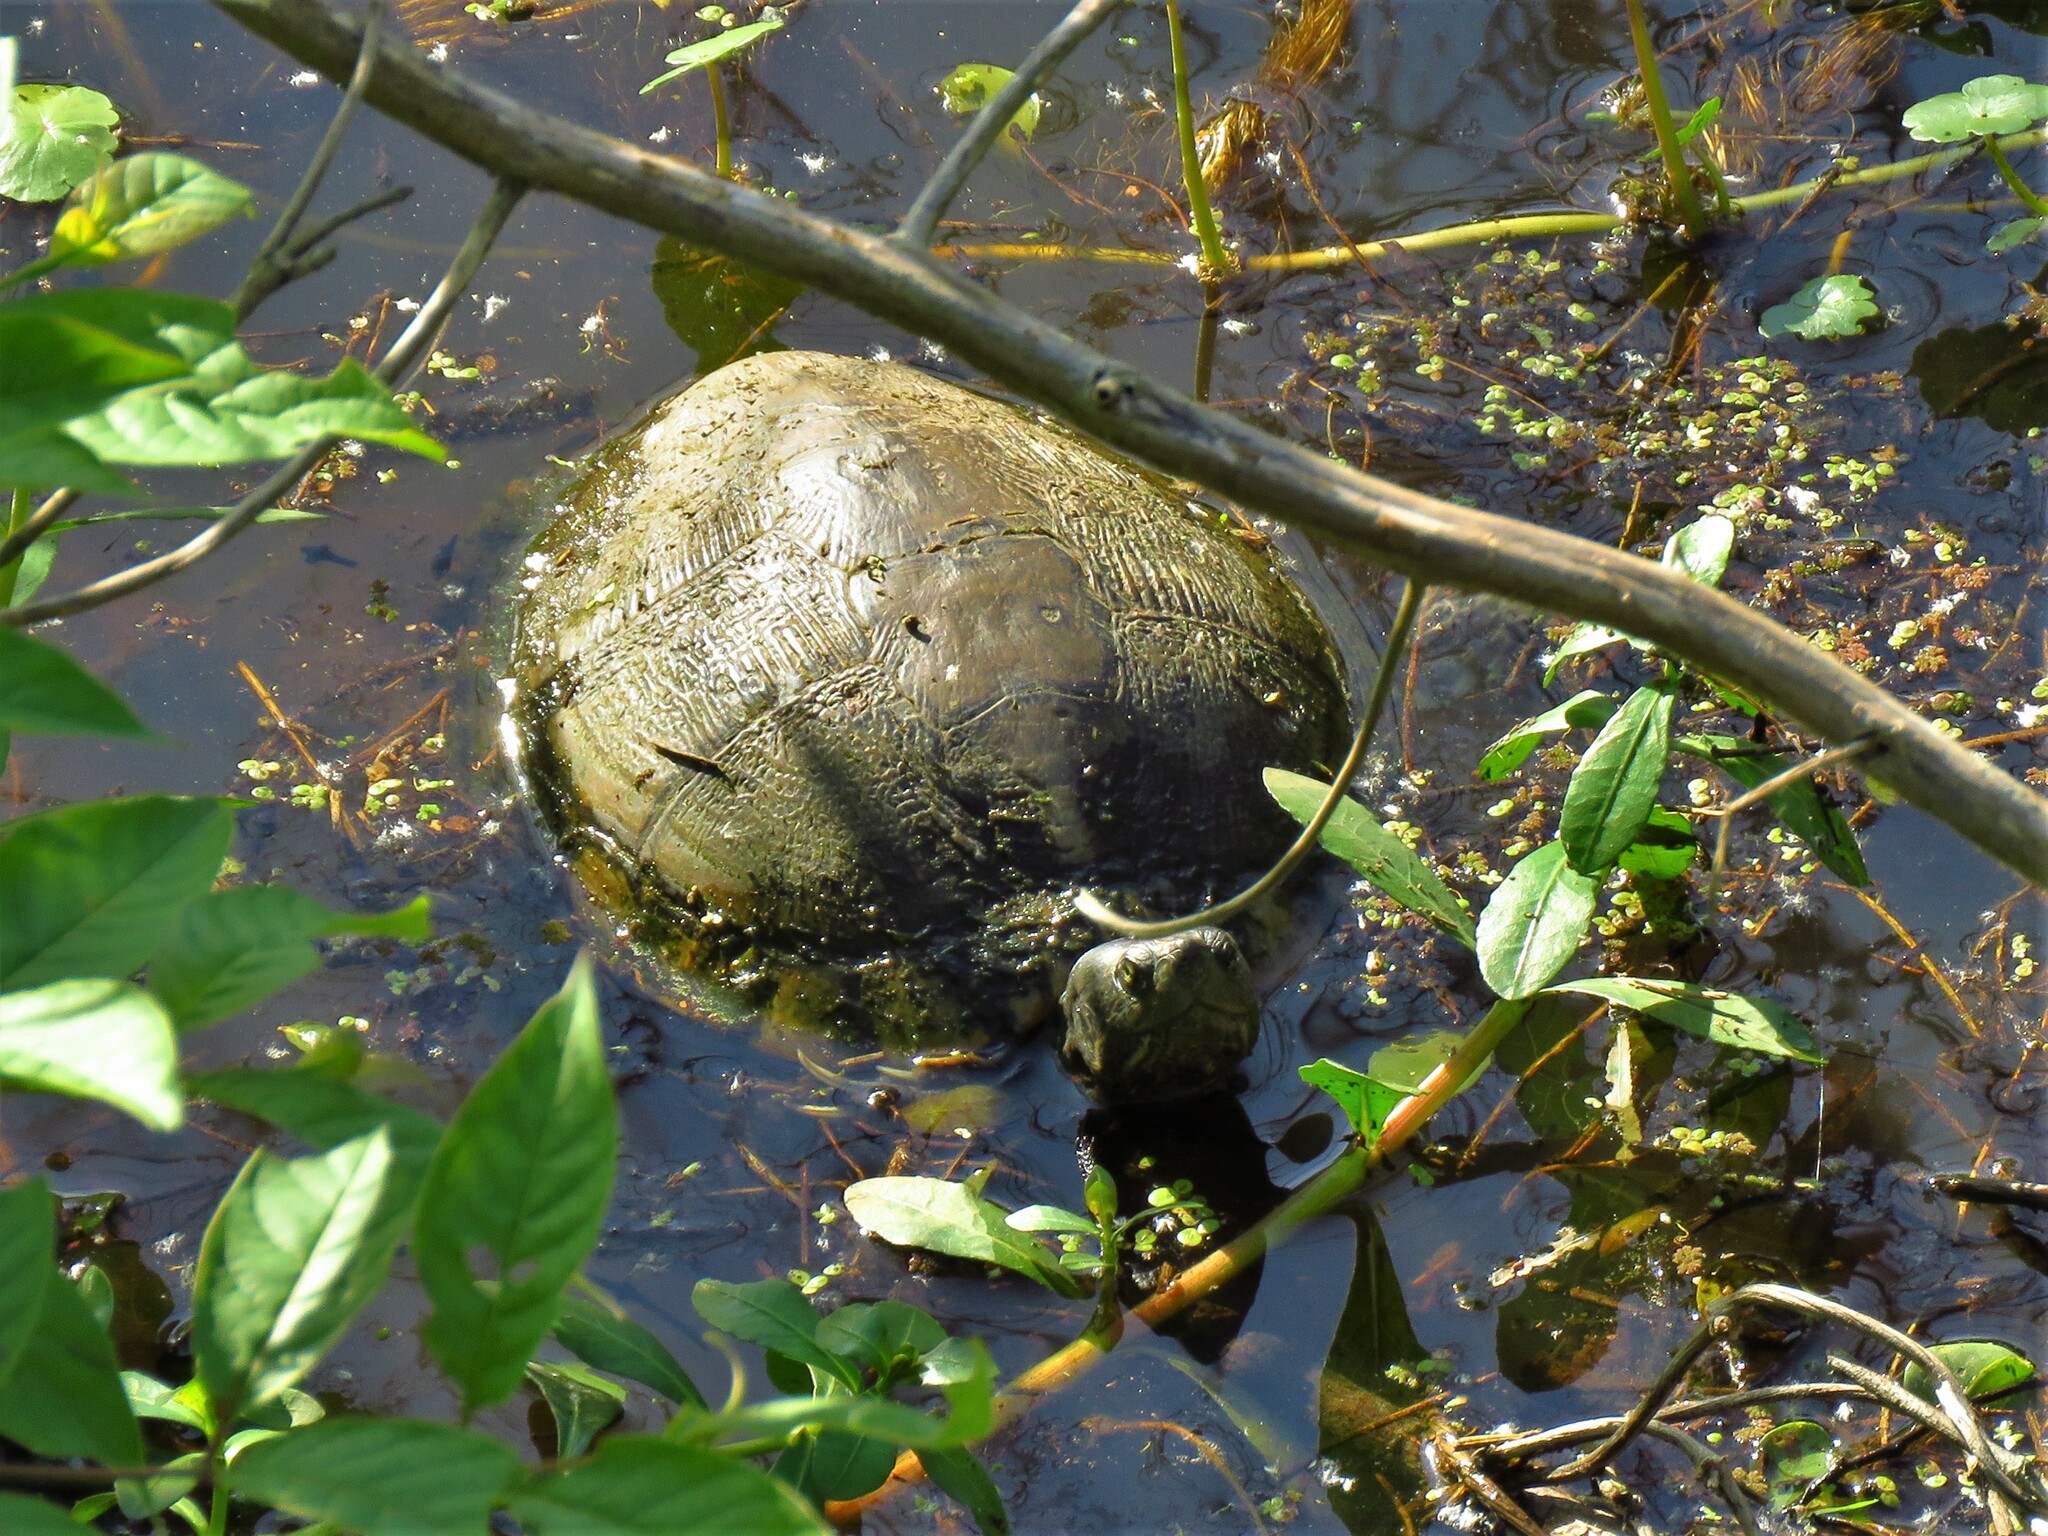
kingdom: Animalia
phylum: Chordata
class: Testudines
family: Emydidae
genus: Trachemys
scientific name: Trachemys scripta
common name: Slider
